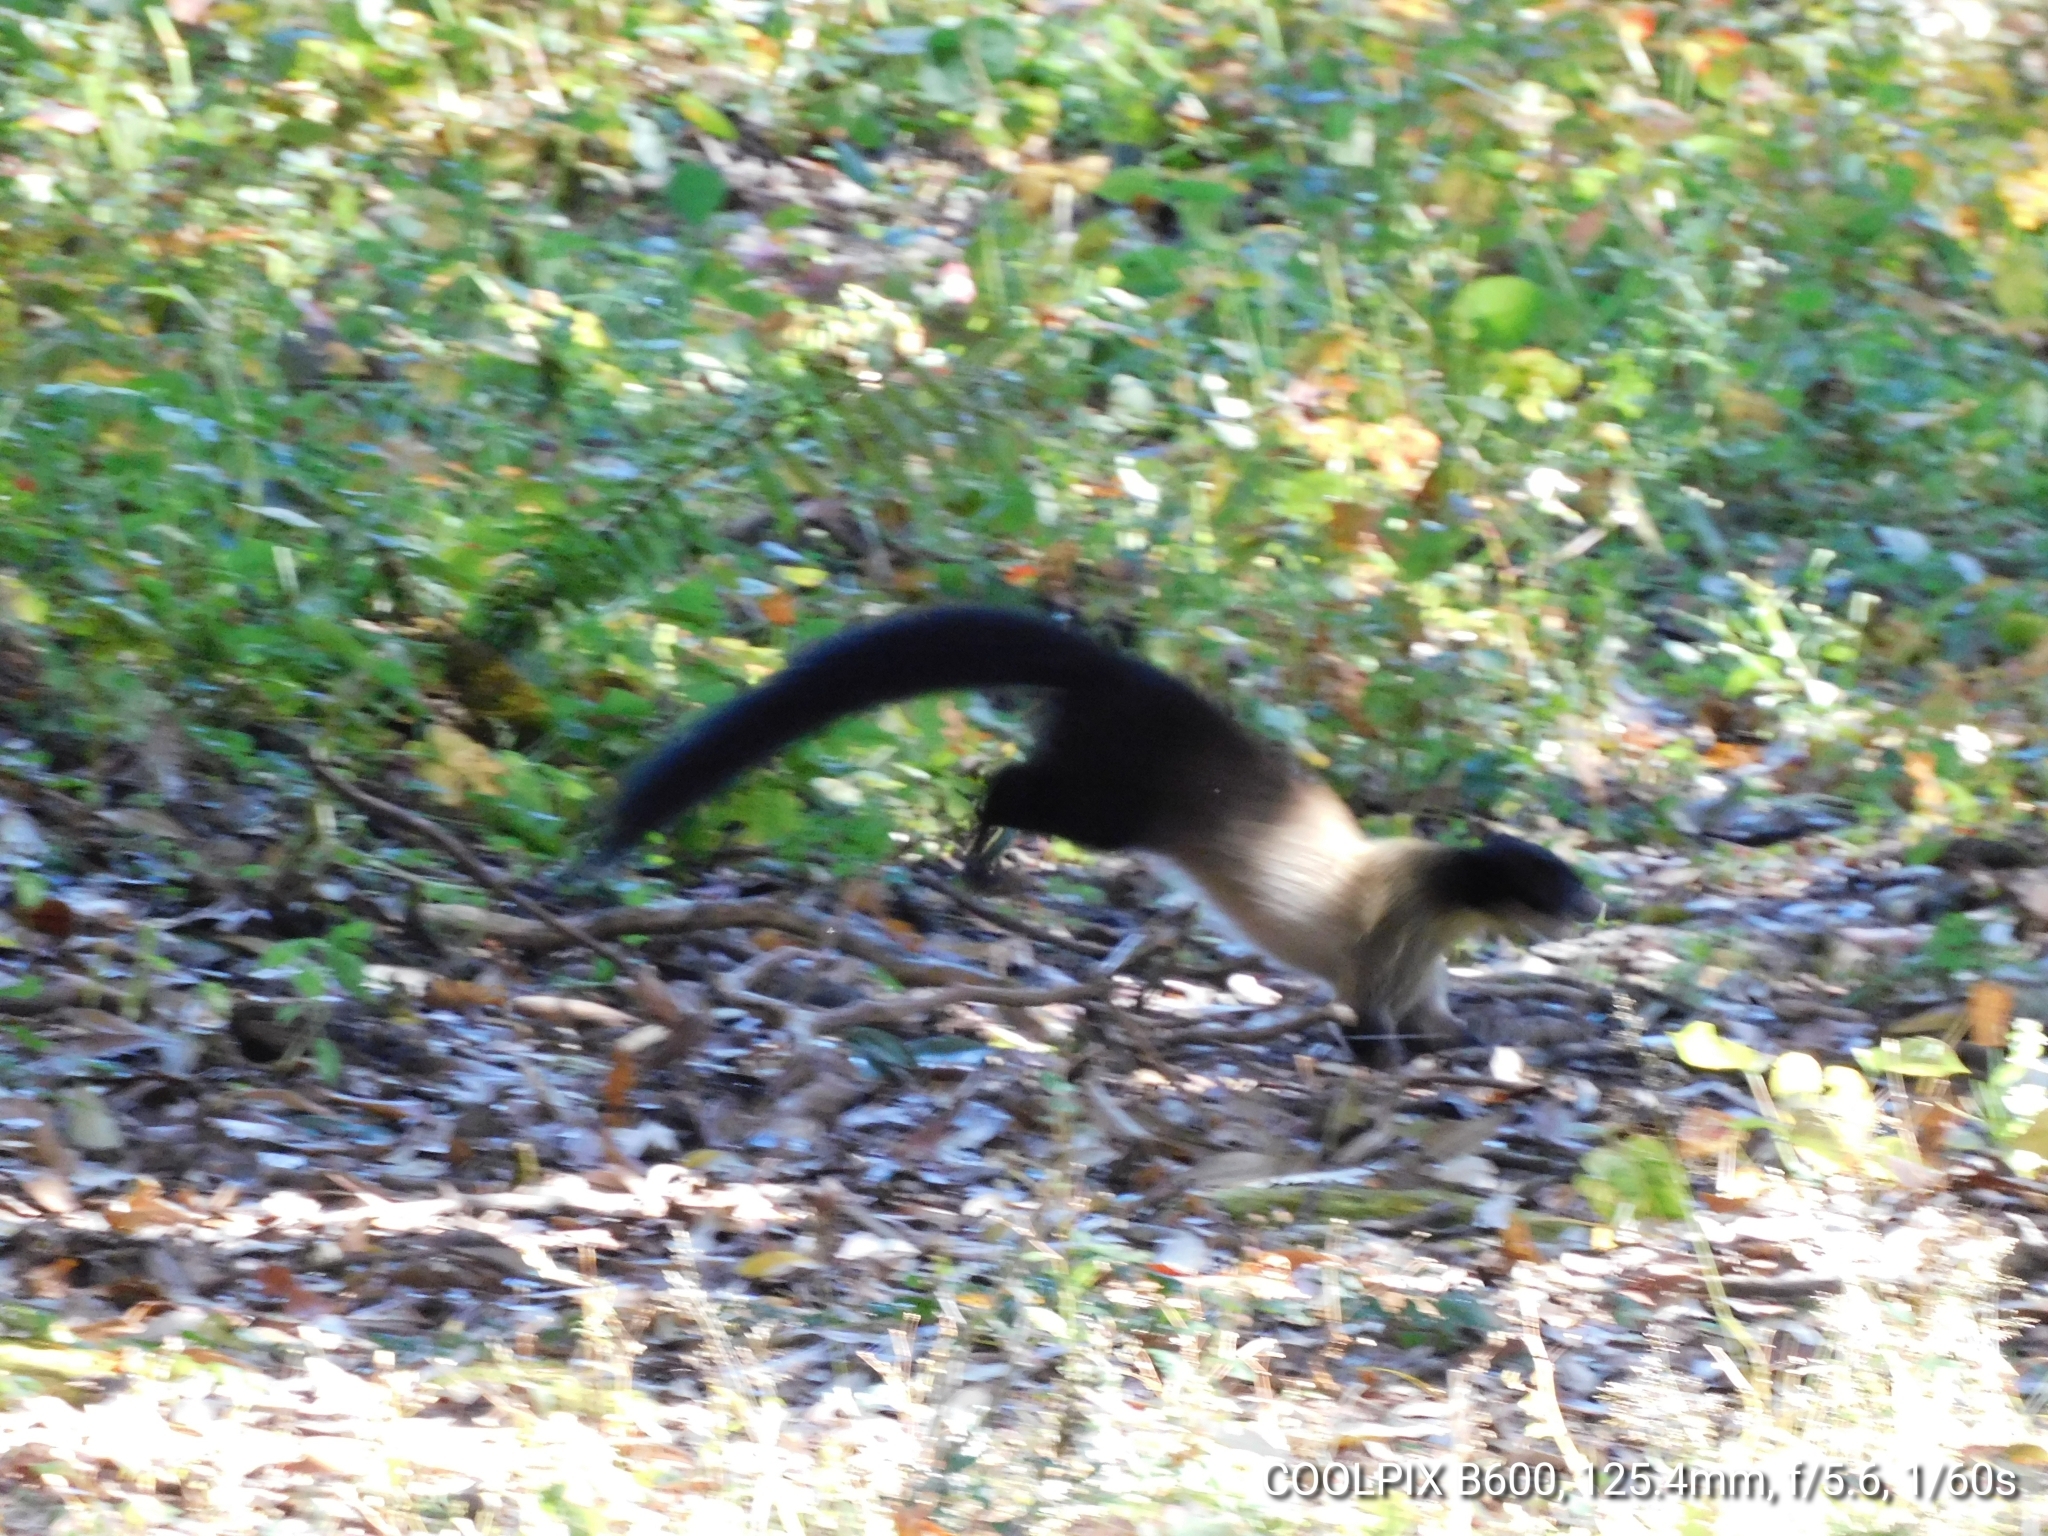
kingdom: Animalia
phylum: Chordata
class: Mammalia
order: Carnivora
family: Mustelidae
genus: Martes
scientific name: Martes flavigula
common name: Yellow-throated marten
